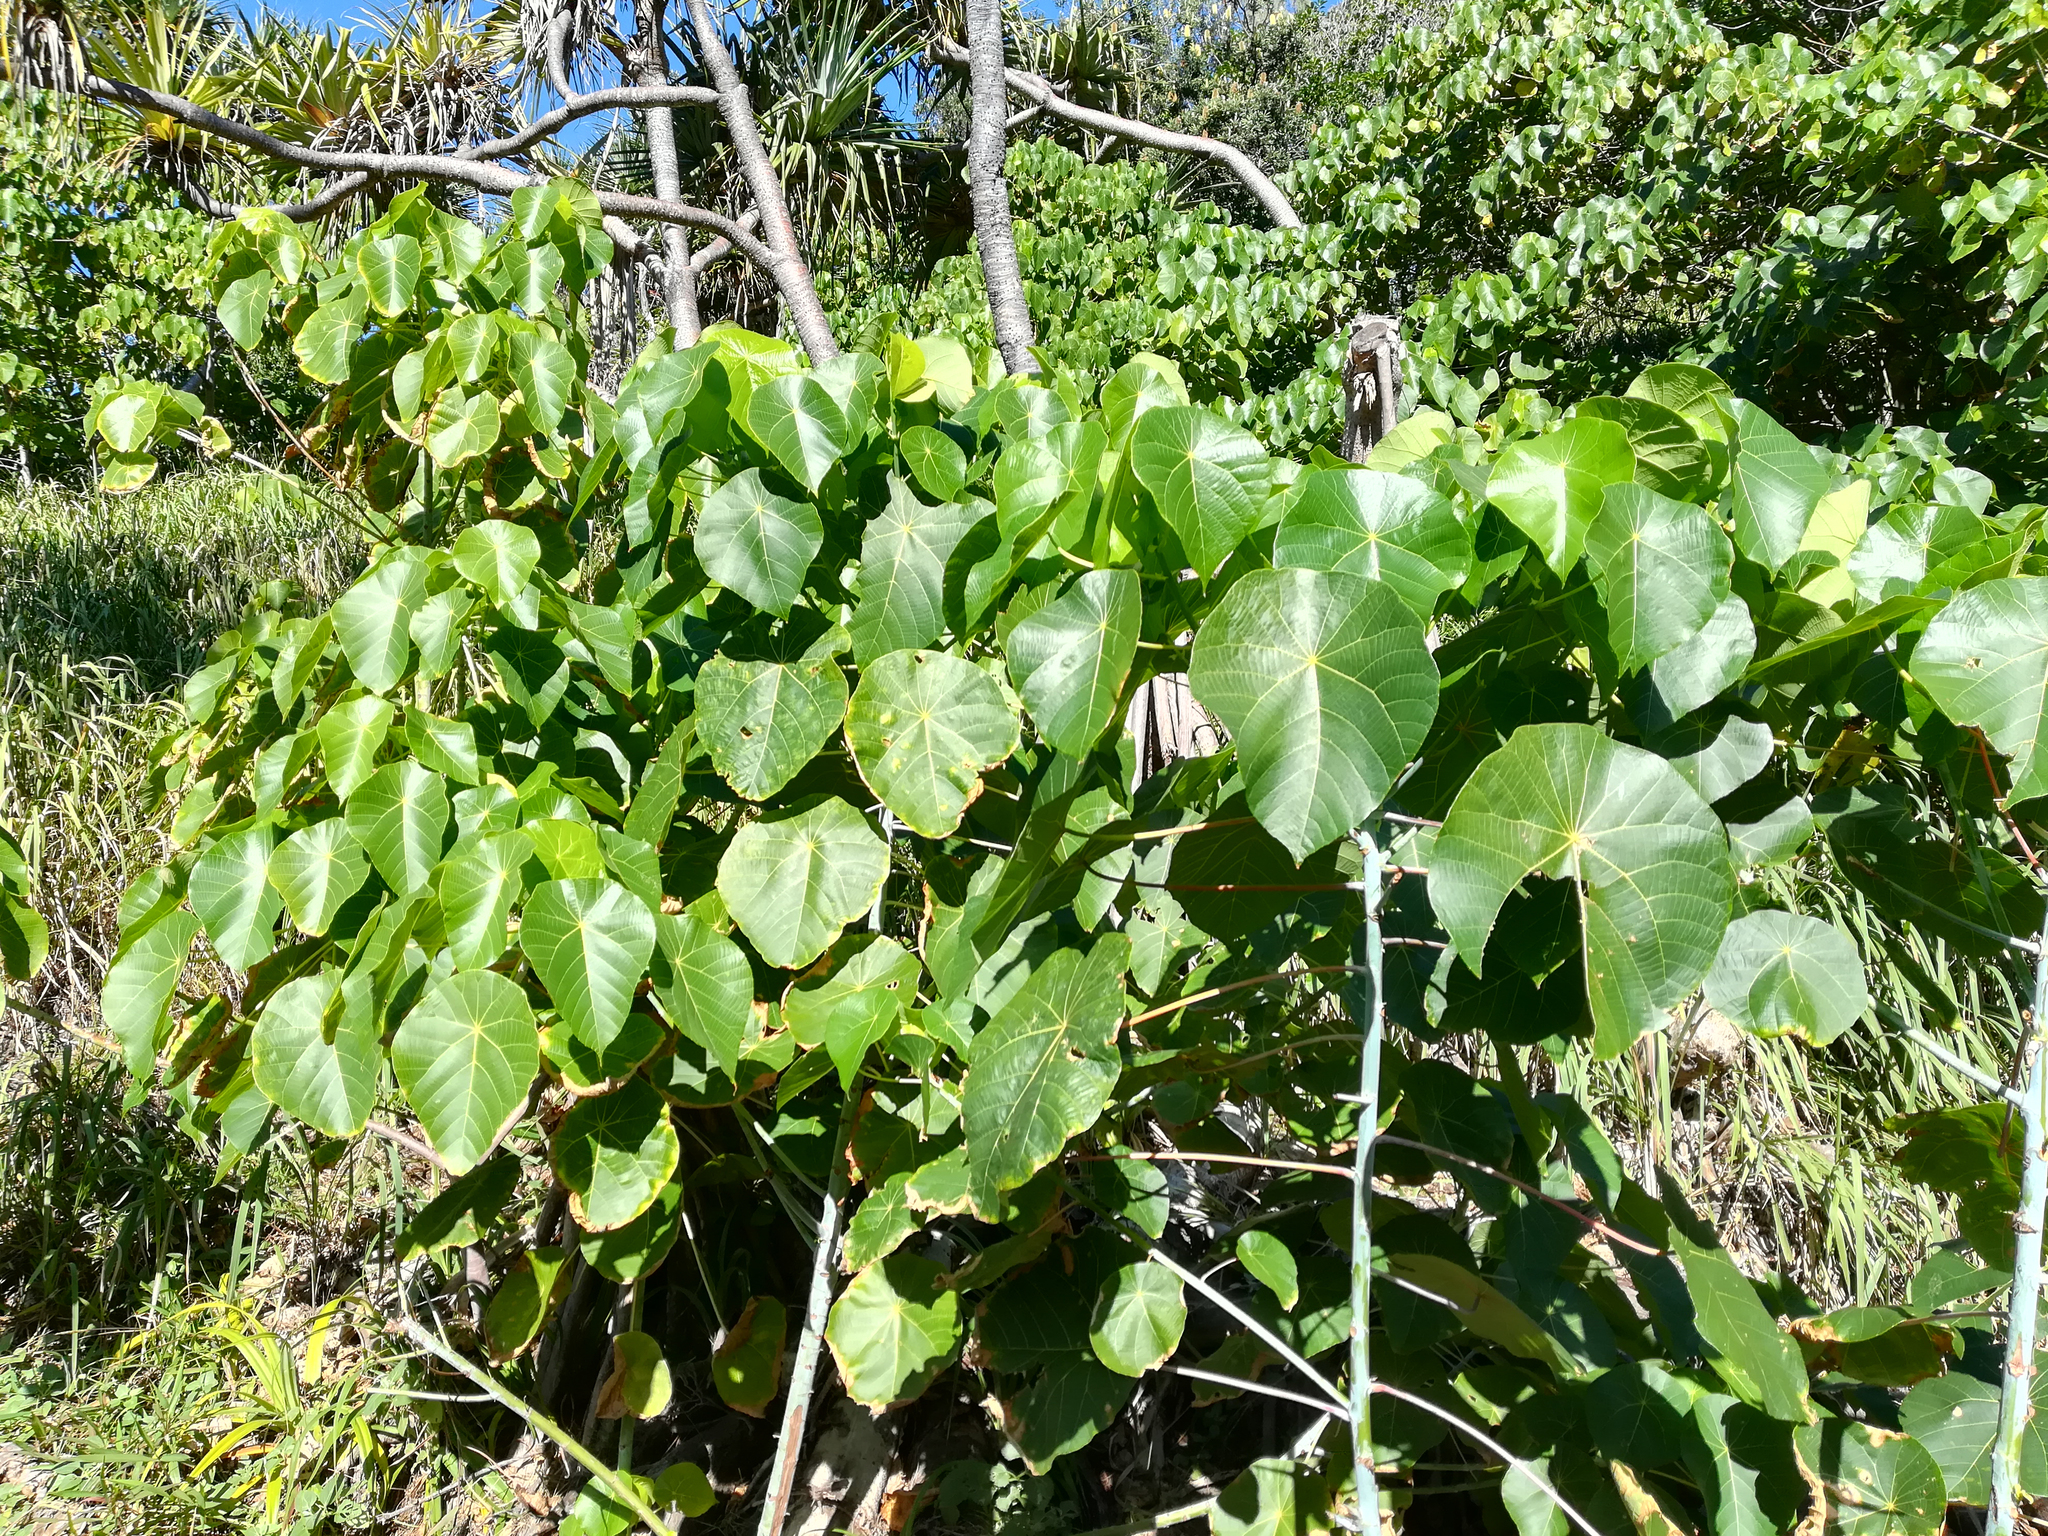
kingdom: Plantae
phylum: Tracheophyta
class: Magnoliopsida
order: Malpighiales
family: Euphorbiaceae
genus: Macaranga
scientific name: Macaranga tanarius
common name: Parasol leaf tree
